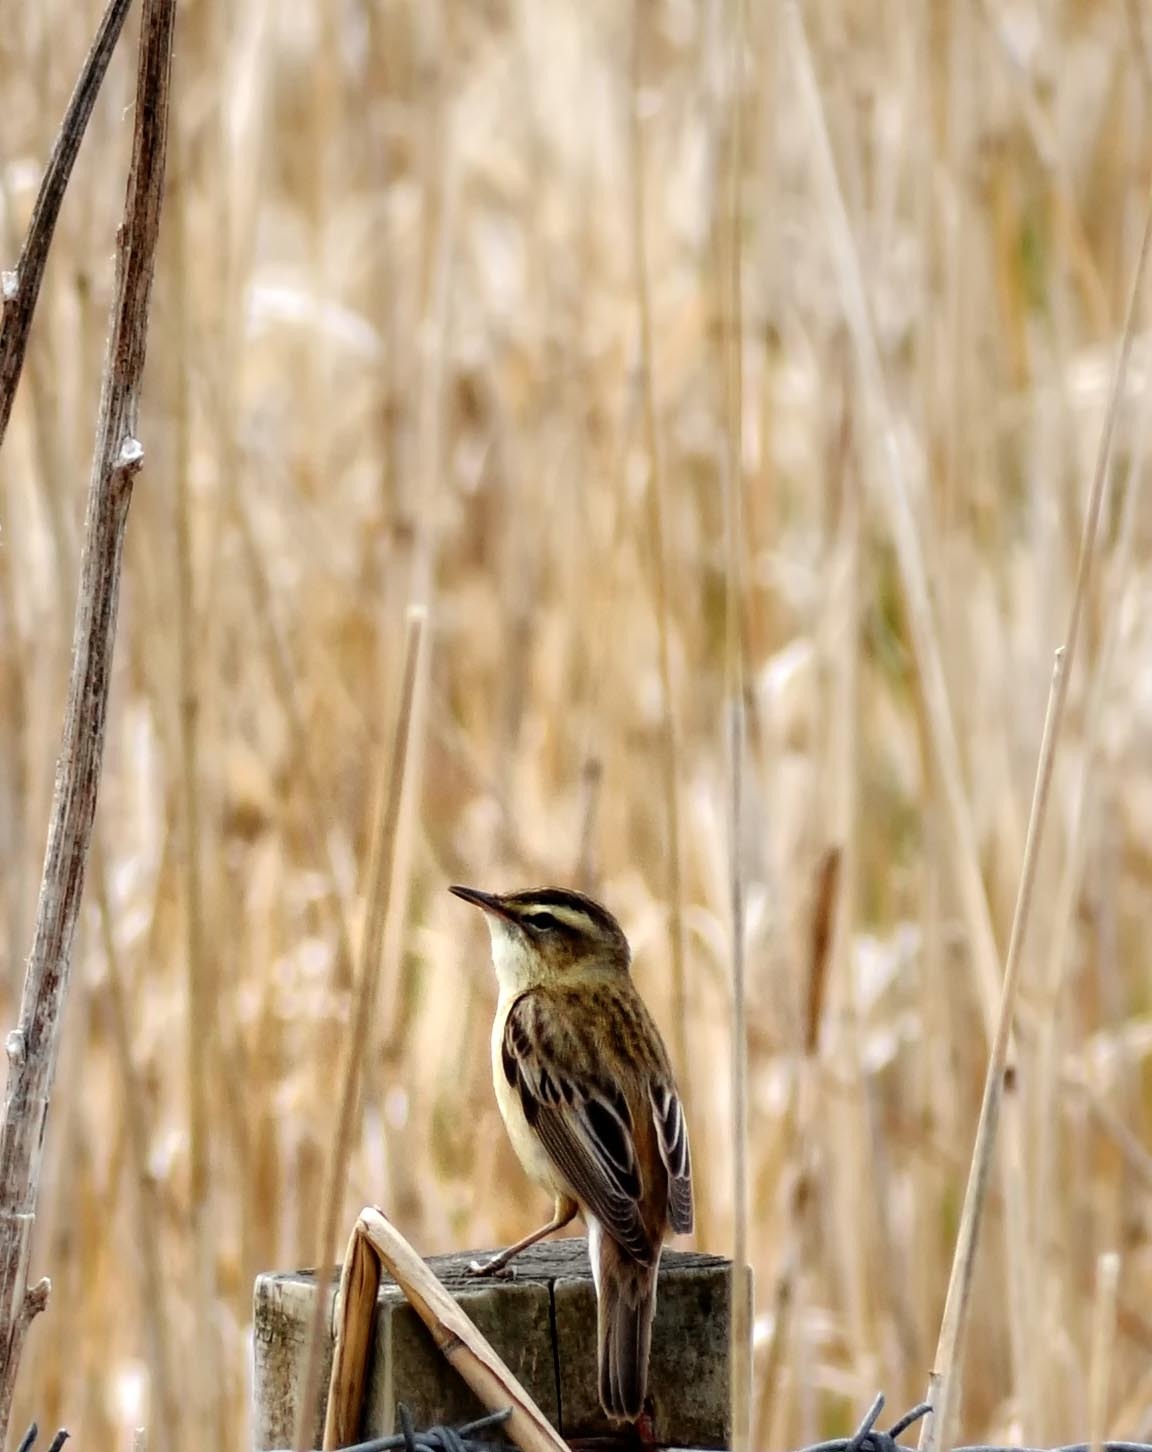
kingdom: Animalia
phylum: Chordata
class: Aves
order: Passeriformes
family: Acrocephalidae
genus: Acrocephalus
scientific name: Acrocephalus schoenobaenus
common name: Sedge warbler
